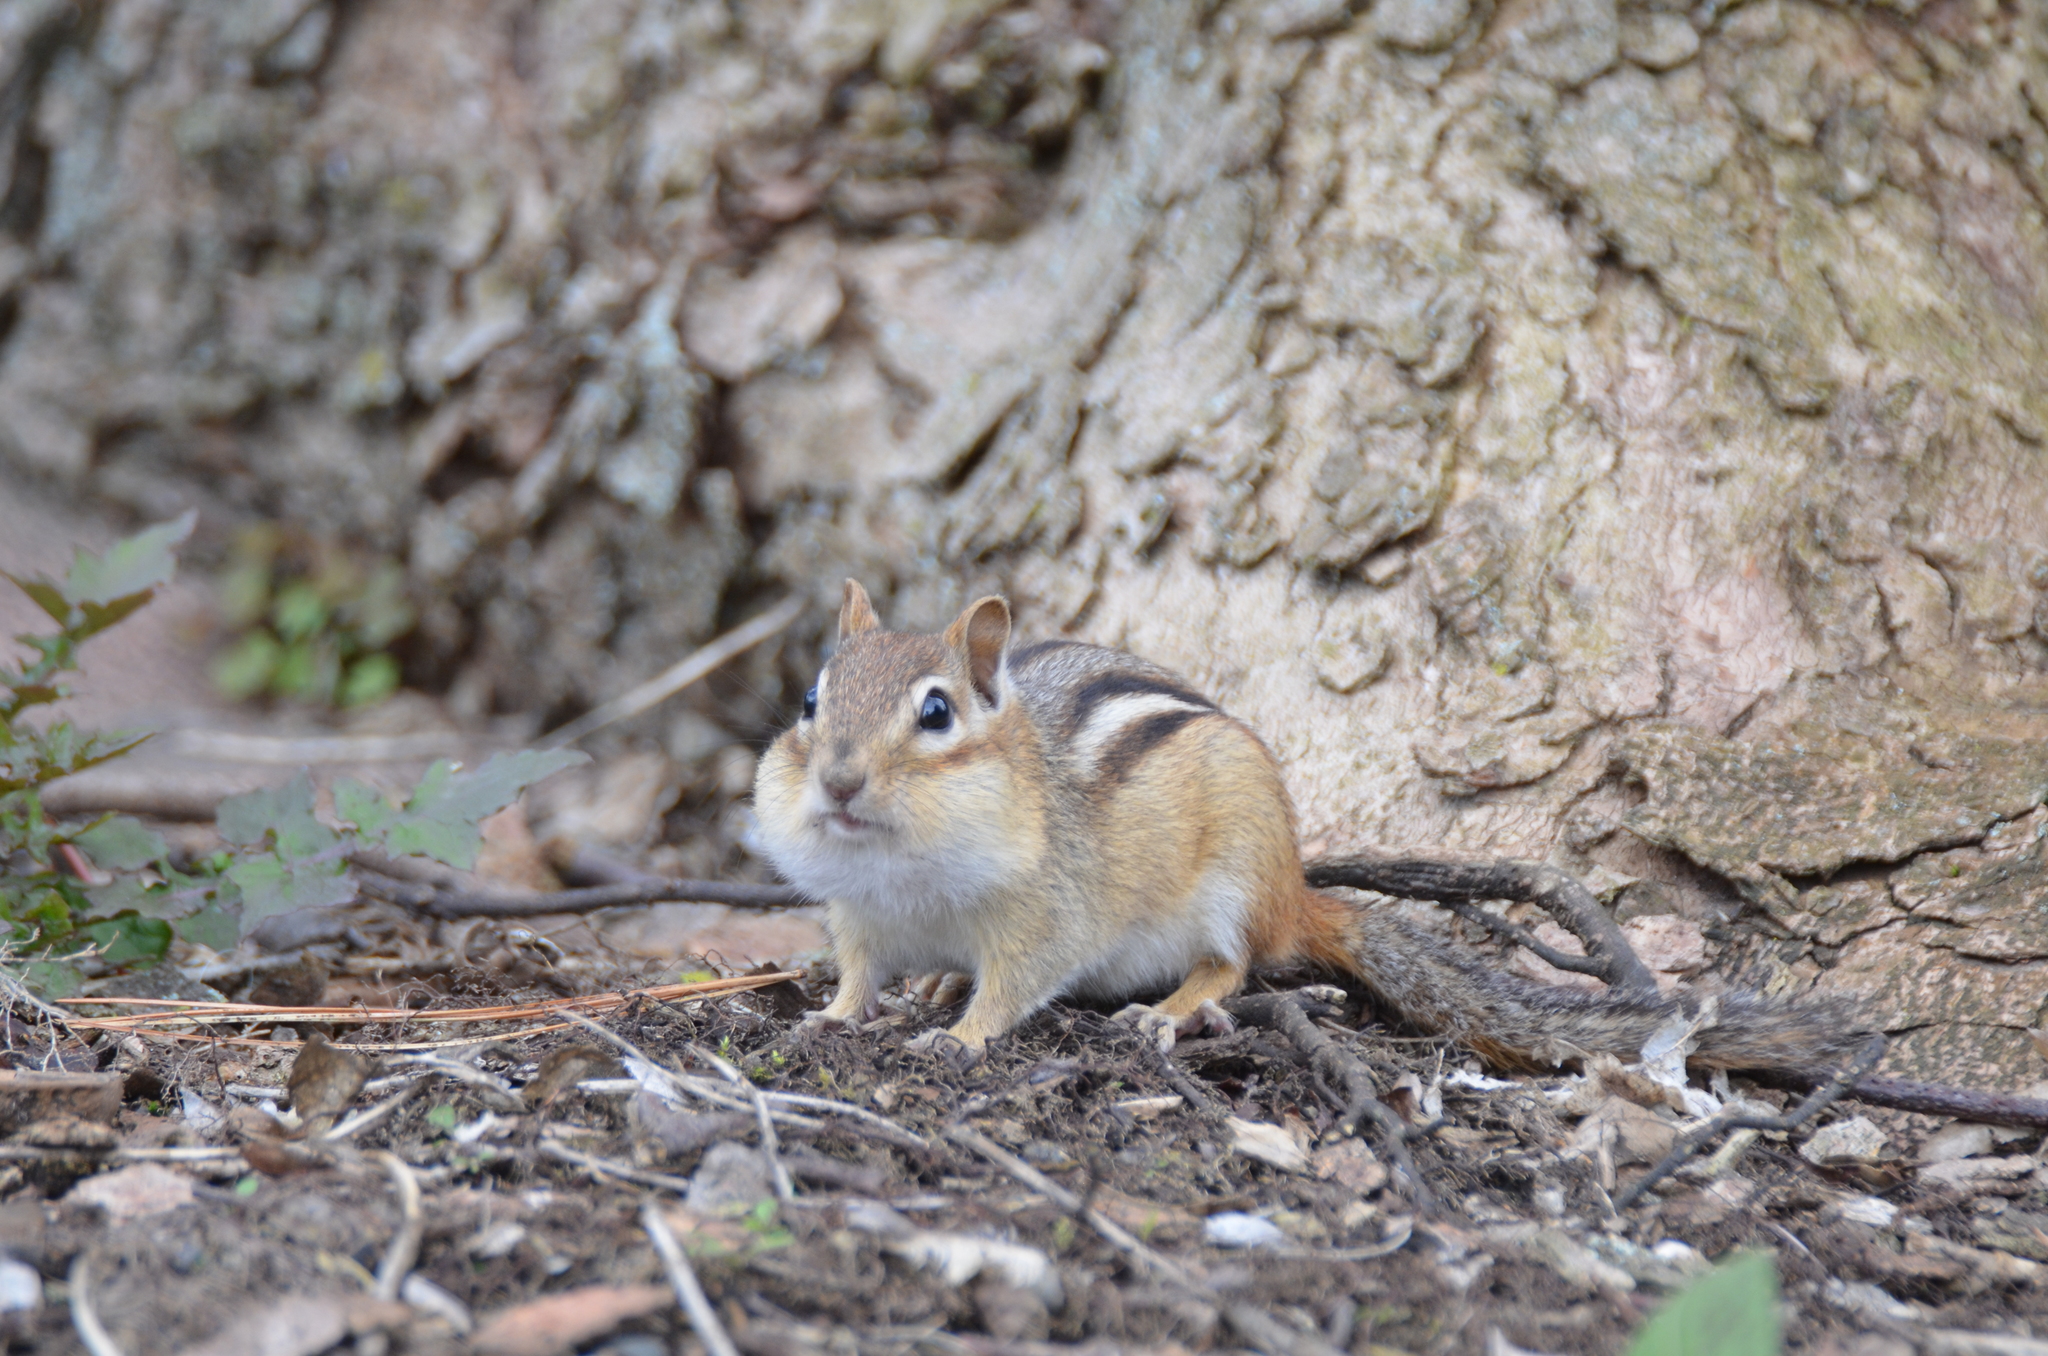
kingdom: Animalia
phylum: Chordata
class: Mammalia
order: Rodentia
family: Sciuridae
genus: Tamias
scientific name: Tamias striatus
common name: Eastern chipmunk
